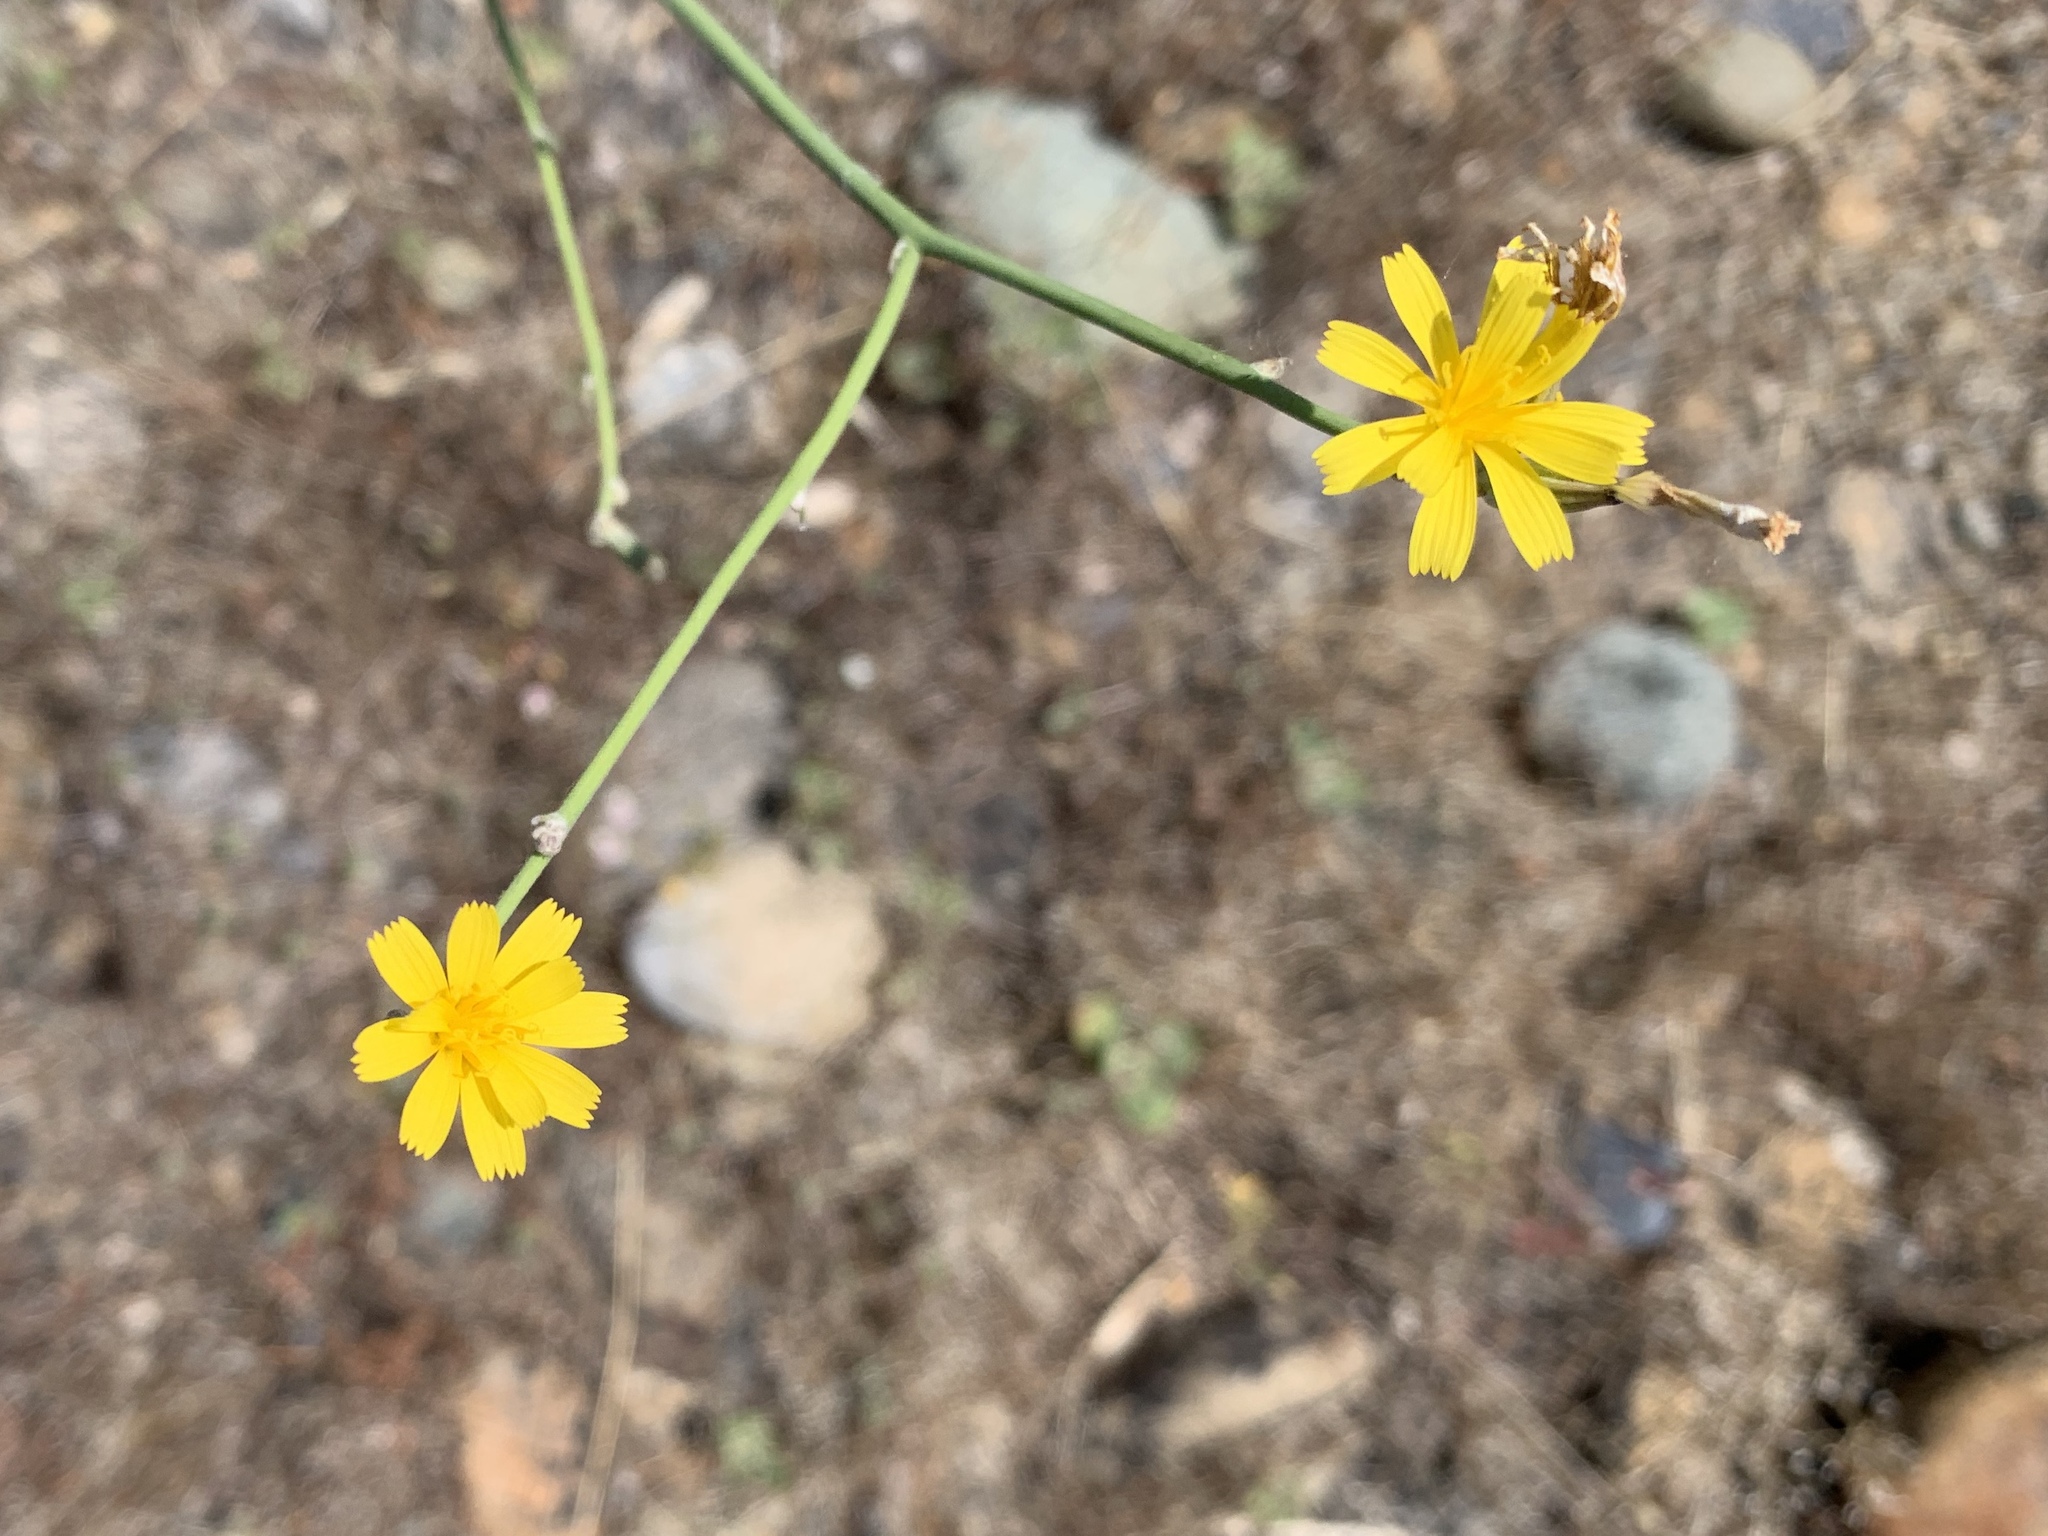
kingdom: Plantae
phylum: Tracheophyta
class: Magnoliopsida
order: Asterales
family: Asteraceae
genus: Chondrilla
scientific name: Chondrilla juncea
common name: Skeleton weed
